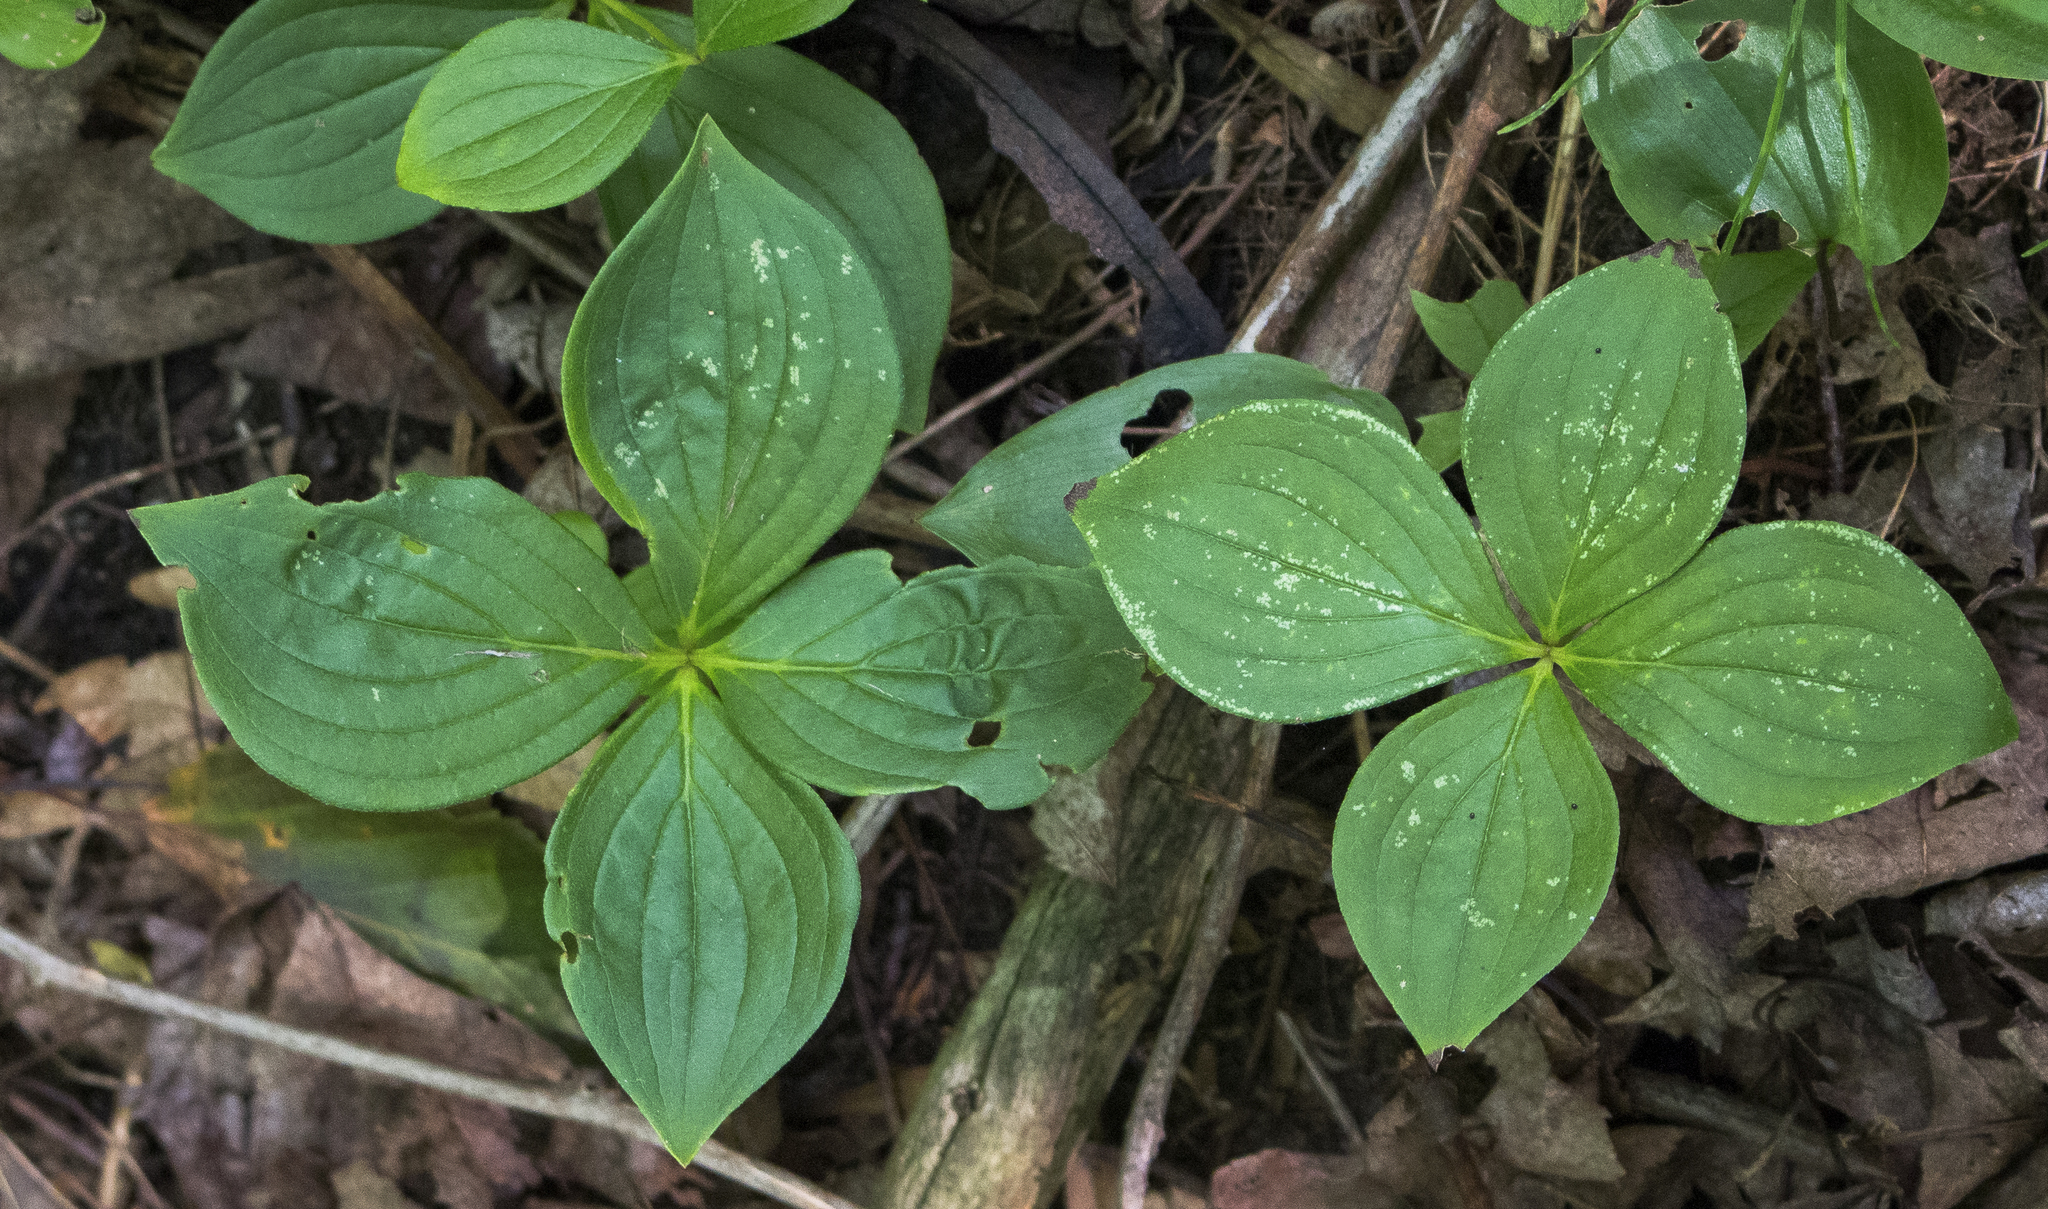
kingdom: Plantae
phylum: Tracheophyta
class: Magnoliopsida
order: Cornales
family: Cornaceae
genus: Cornus
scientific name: Cornus canadensis
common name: Creeping dogwood
